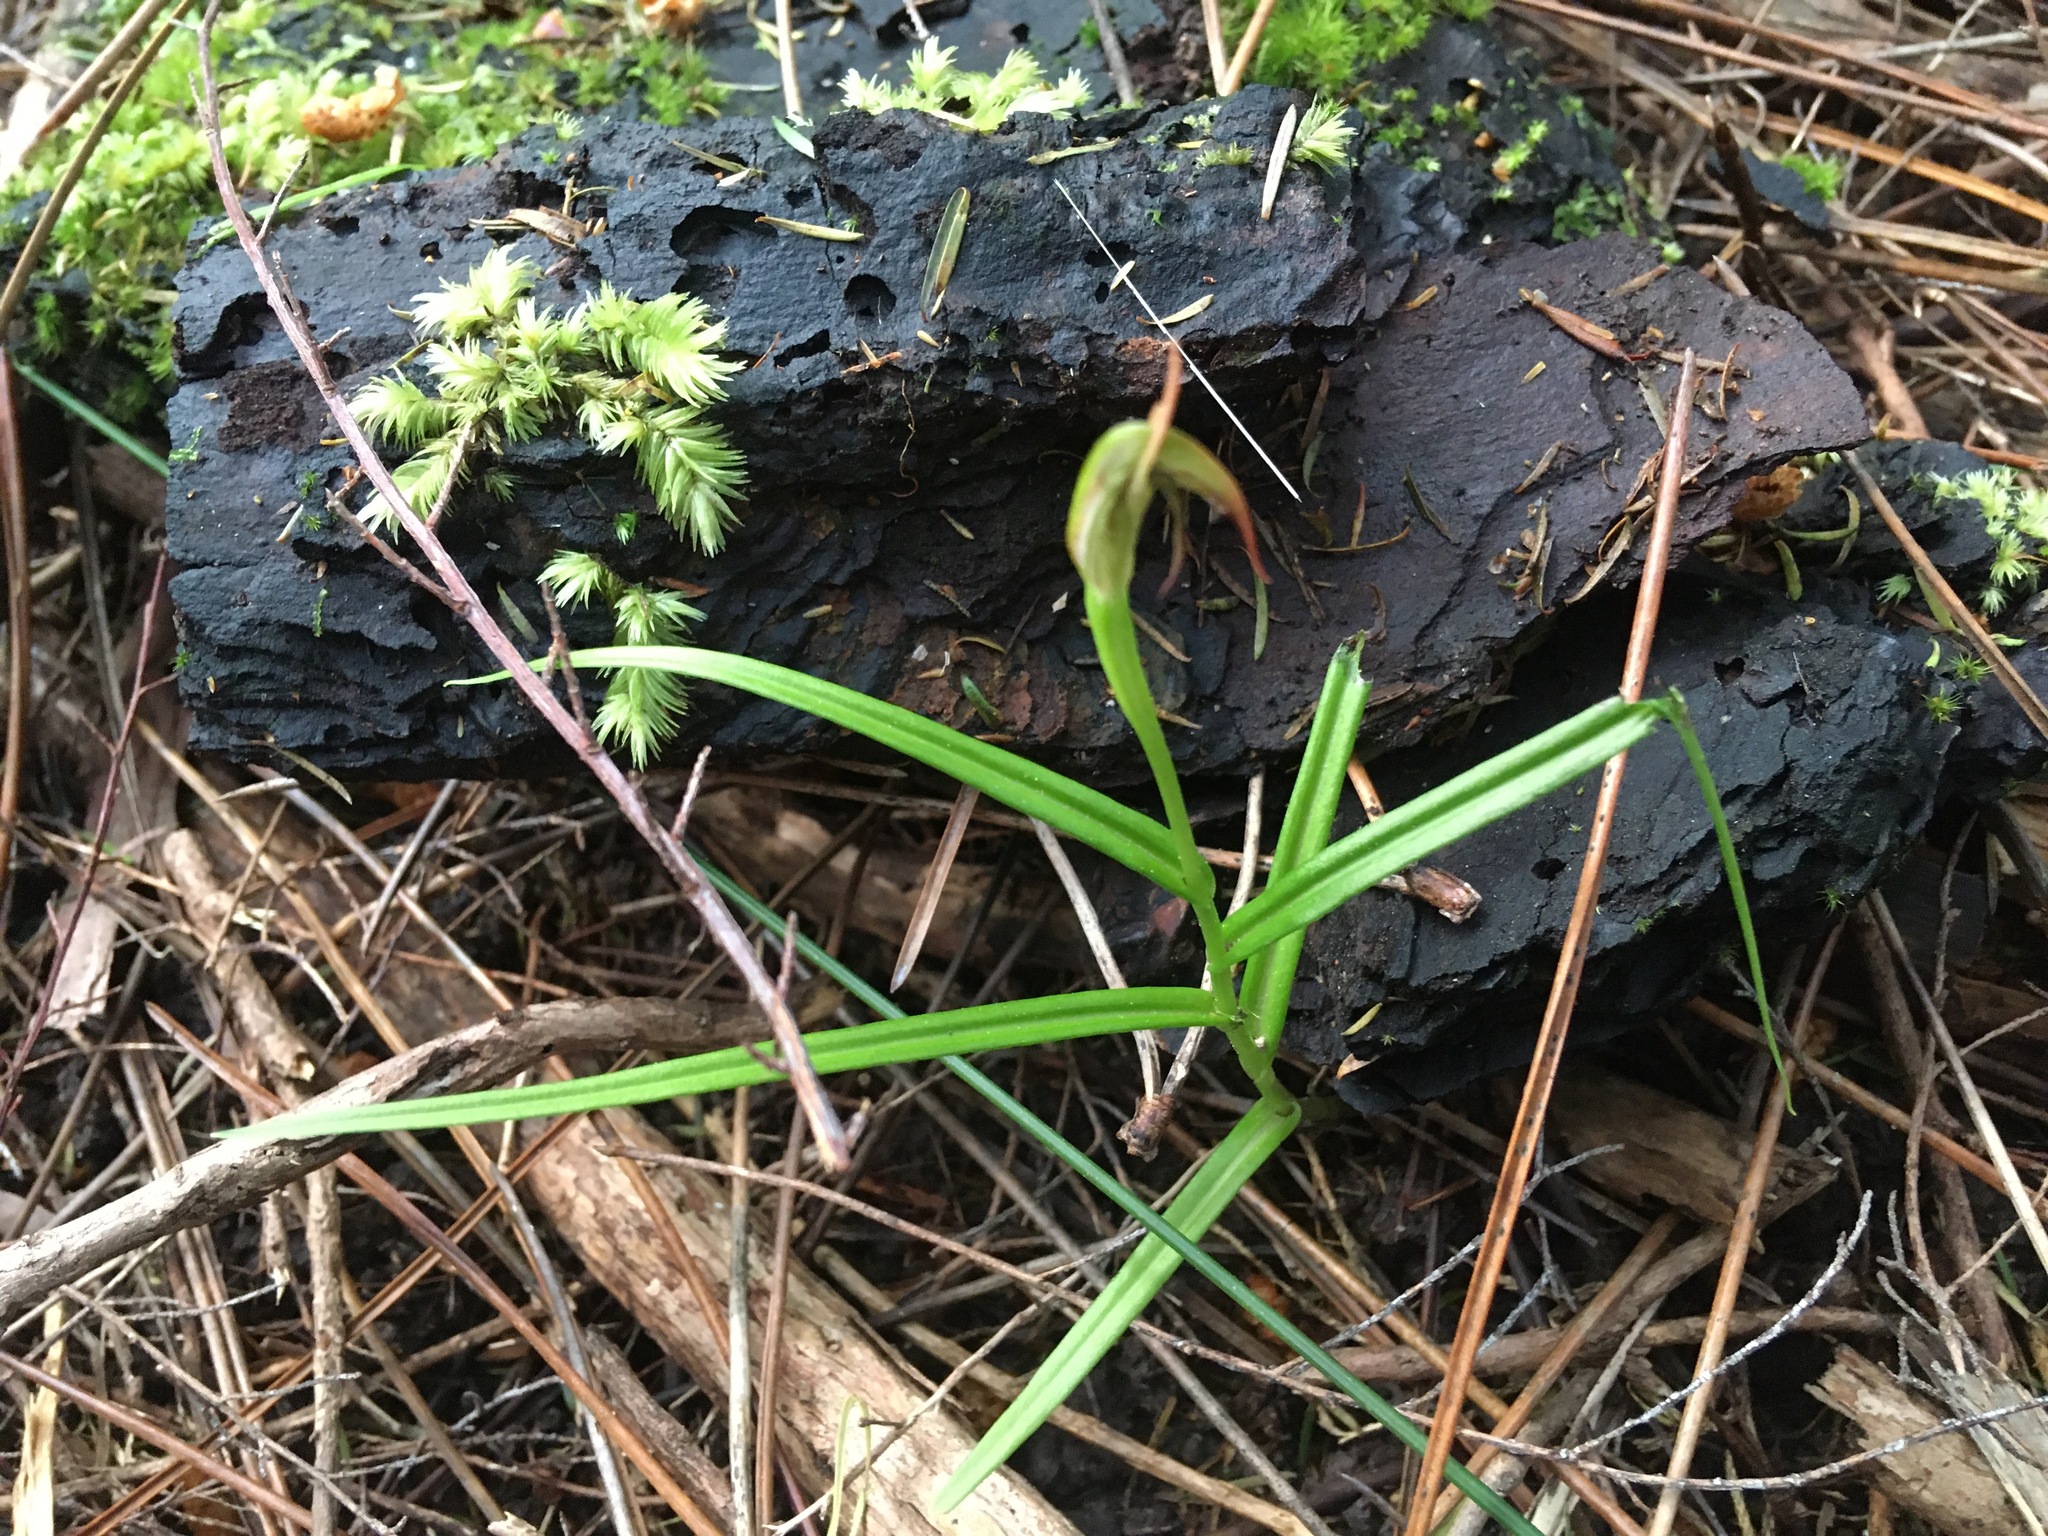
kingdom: Plantae
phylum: Tracheophyta
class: Liliopsida
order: Asparagales
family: Orchidaceae
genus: Pterostylis
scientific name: Pterostylis graminea
